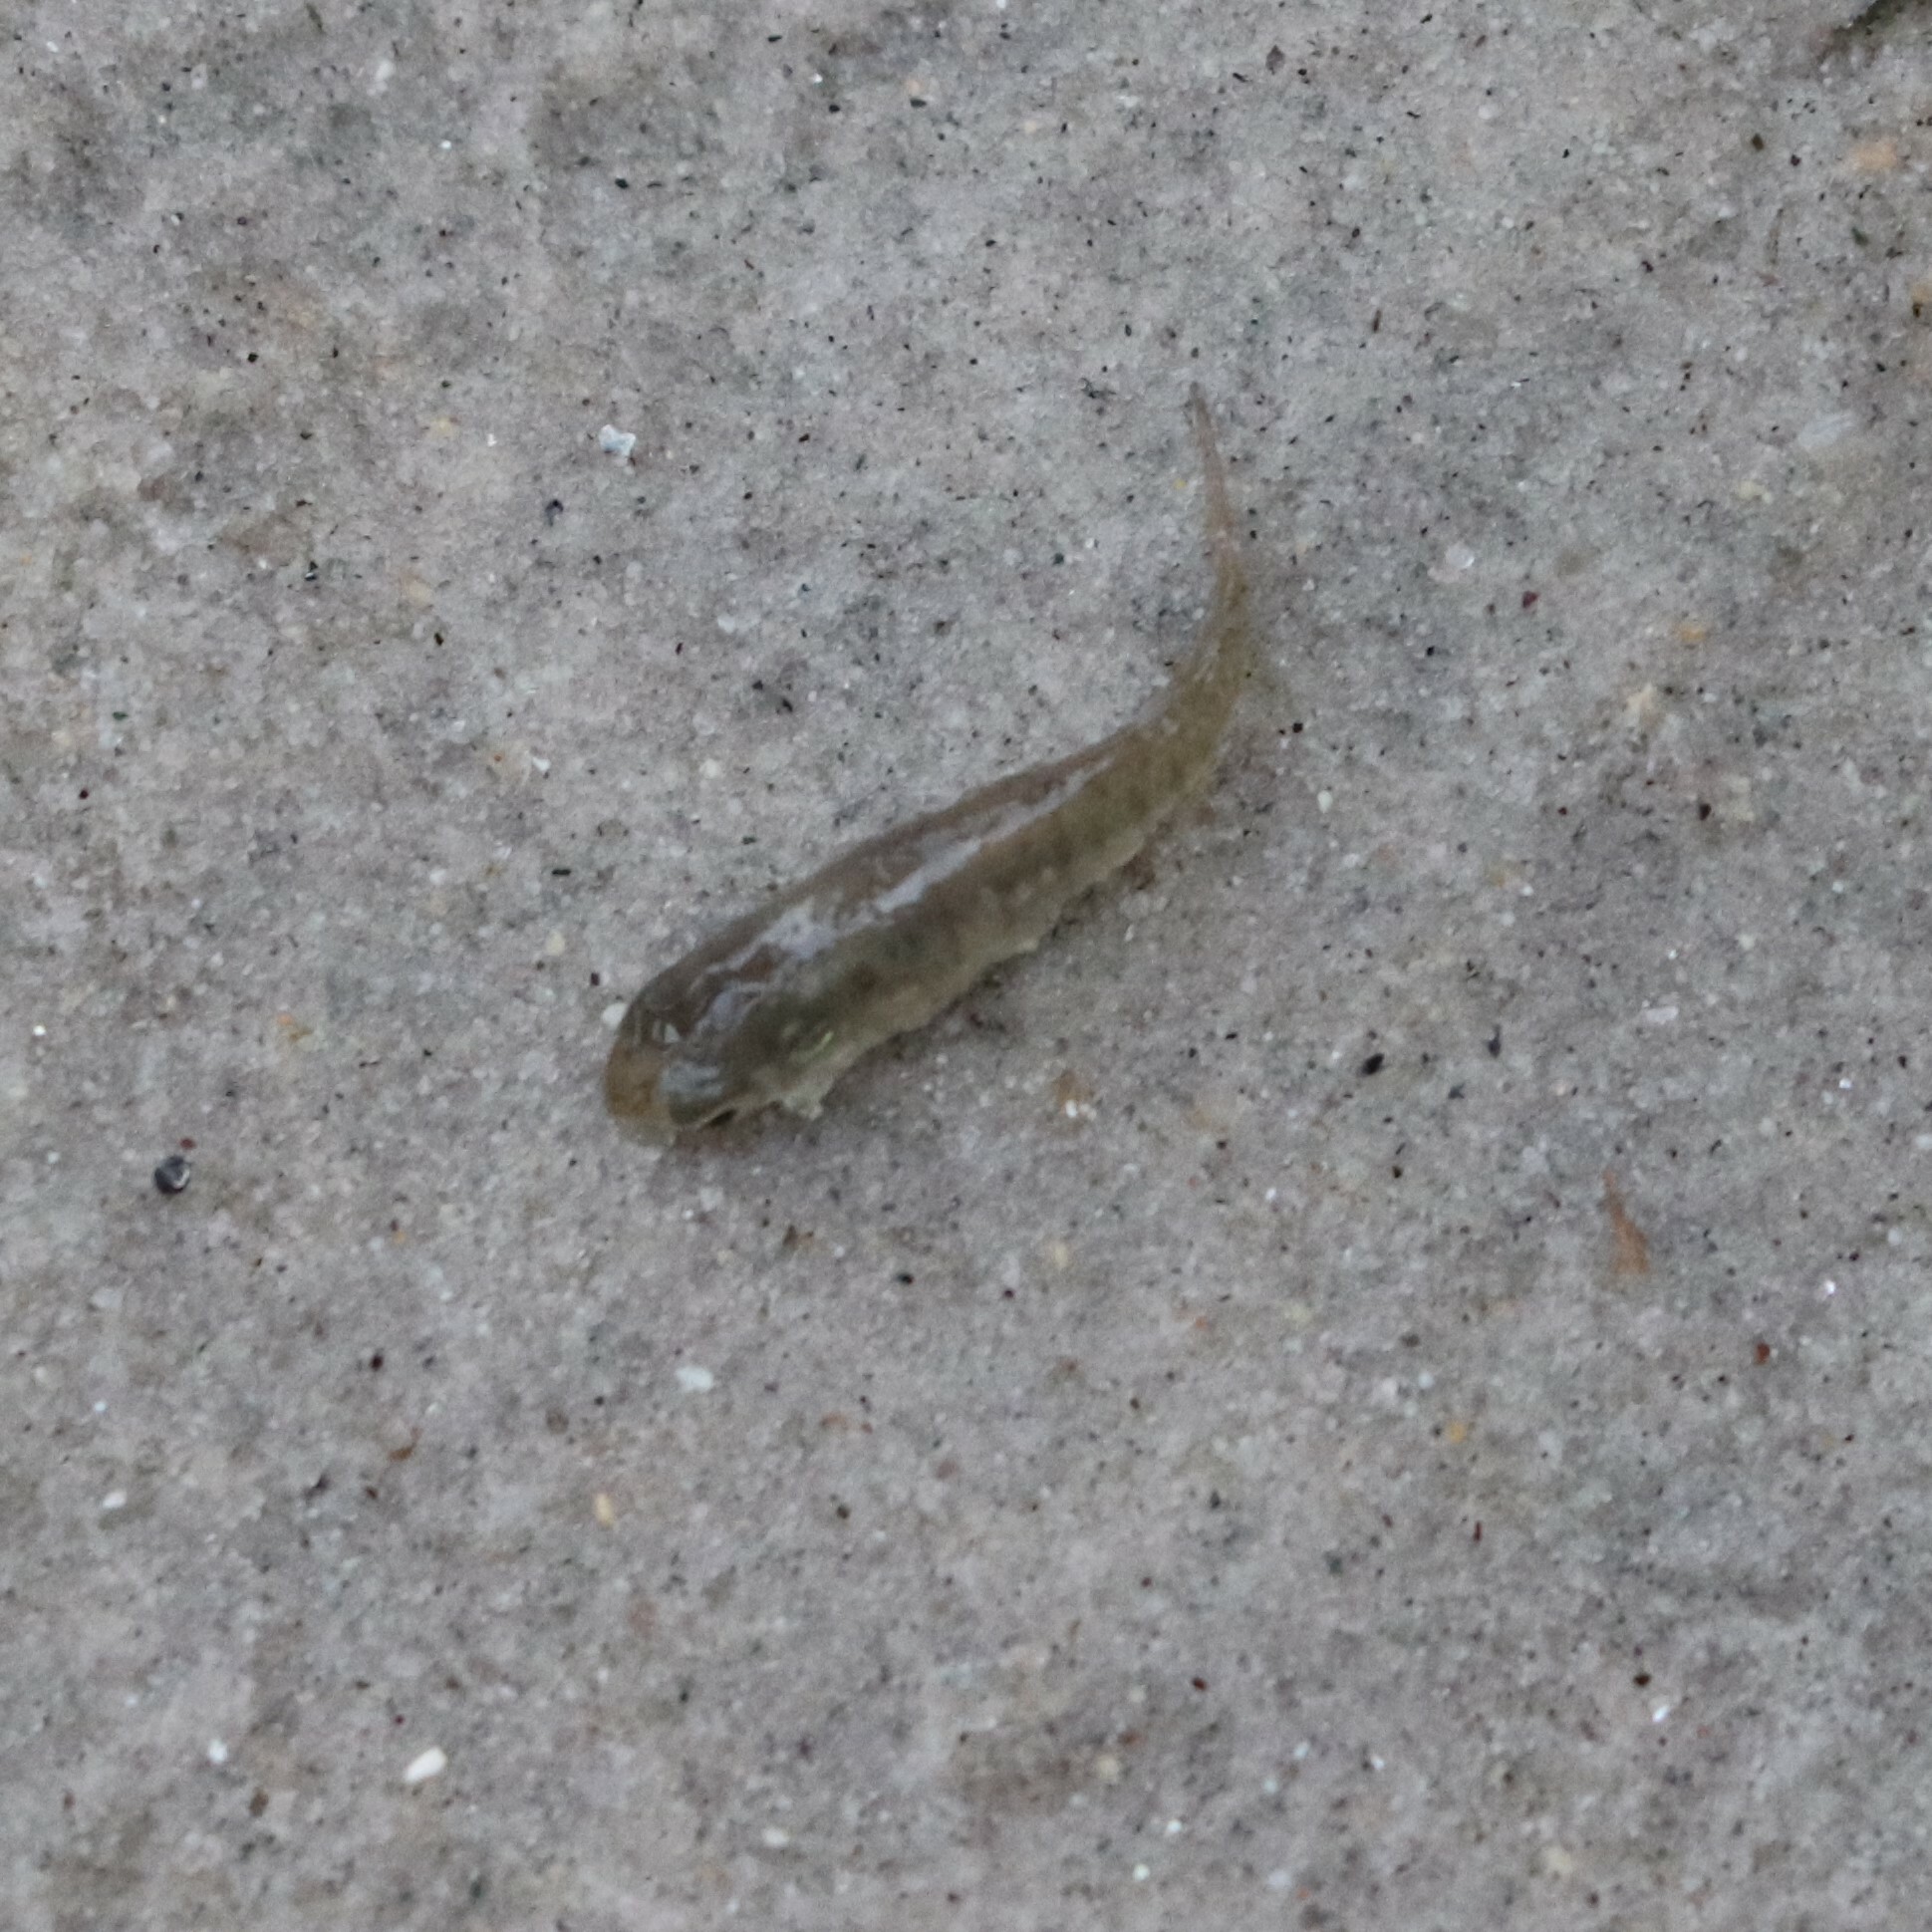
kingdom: Animalia
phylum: Chordata
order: Cyprinodontiformes
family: Fundulidae
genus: Fundulus
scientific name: Fundulus heteroclitus
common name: Mummichog
